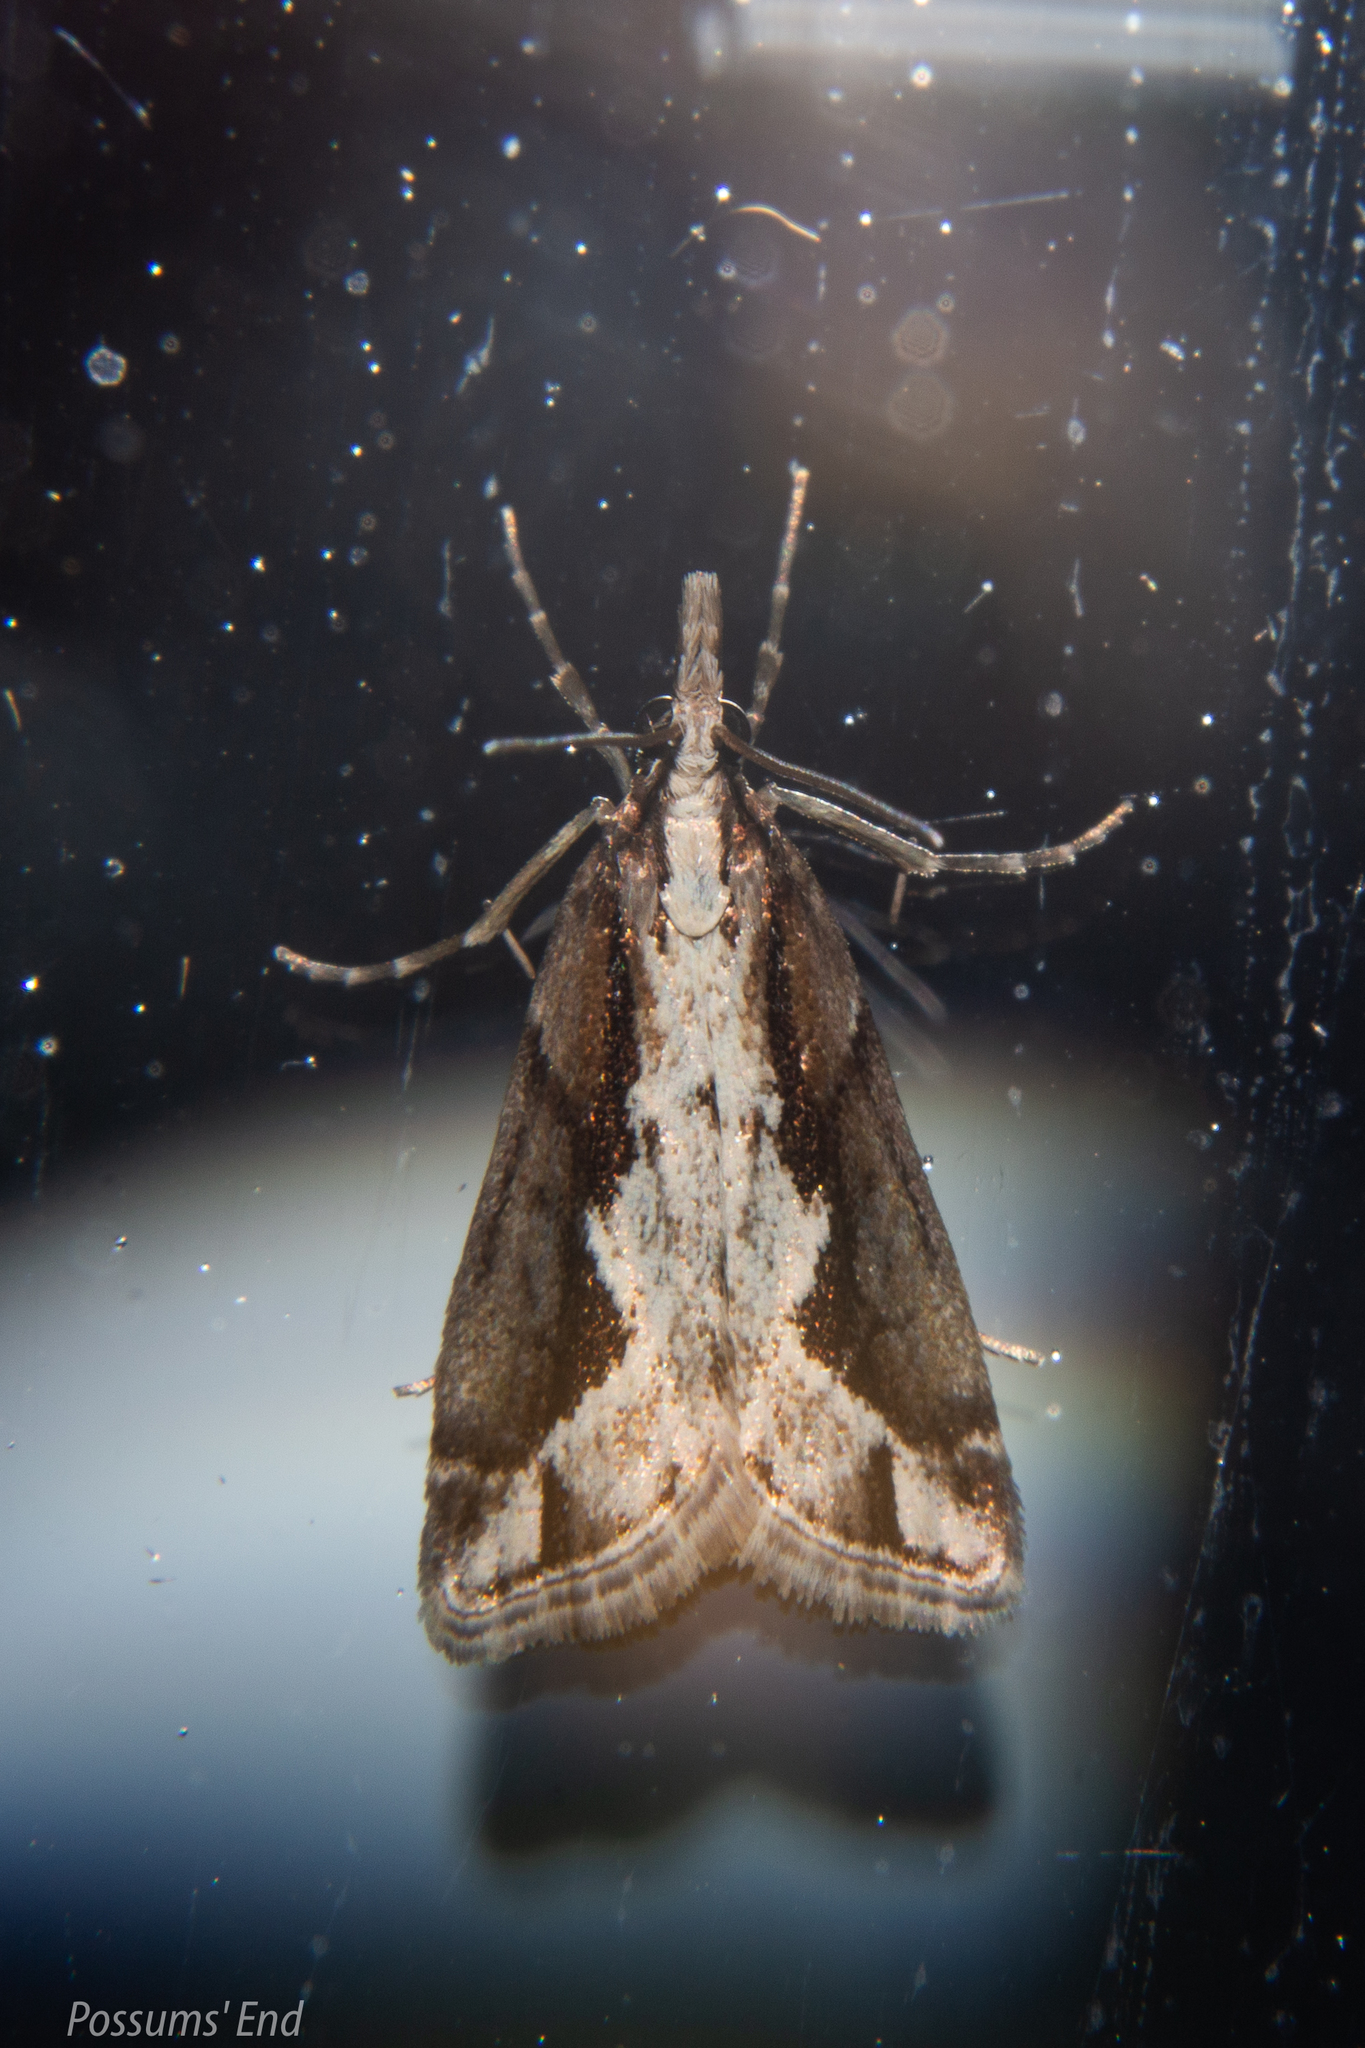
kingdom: Animalia
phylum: Arthropoda
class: Insecta
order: Lepidoptera
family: Crambidae
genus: Eudonia
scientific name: Eudonia steropaea
